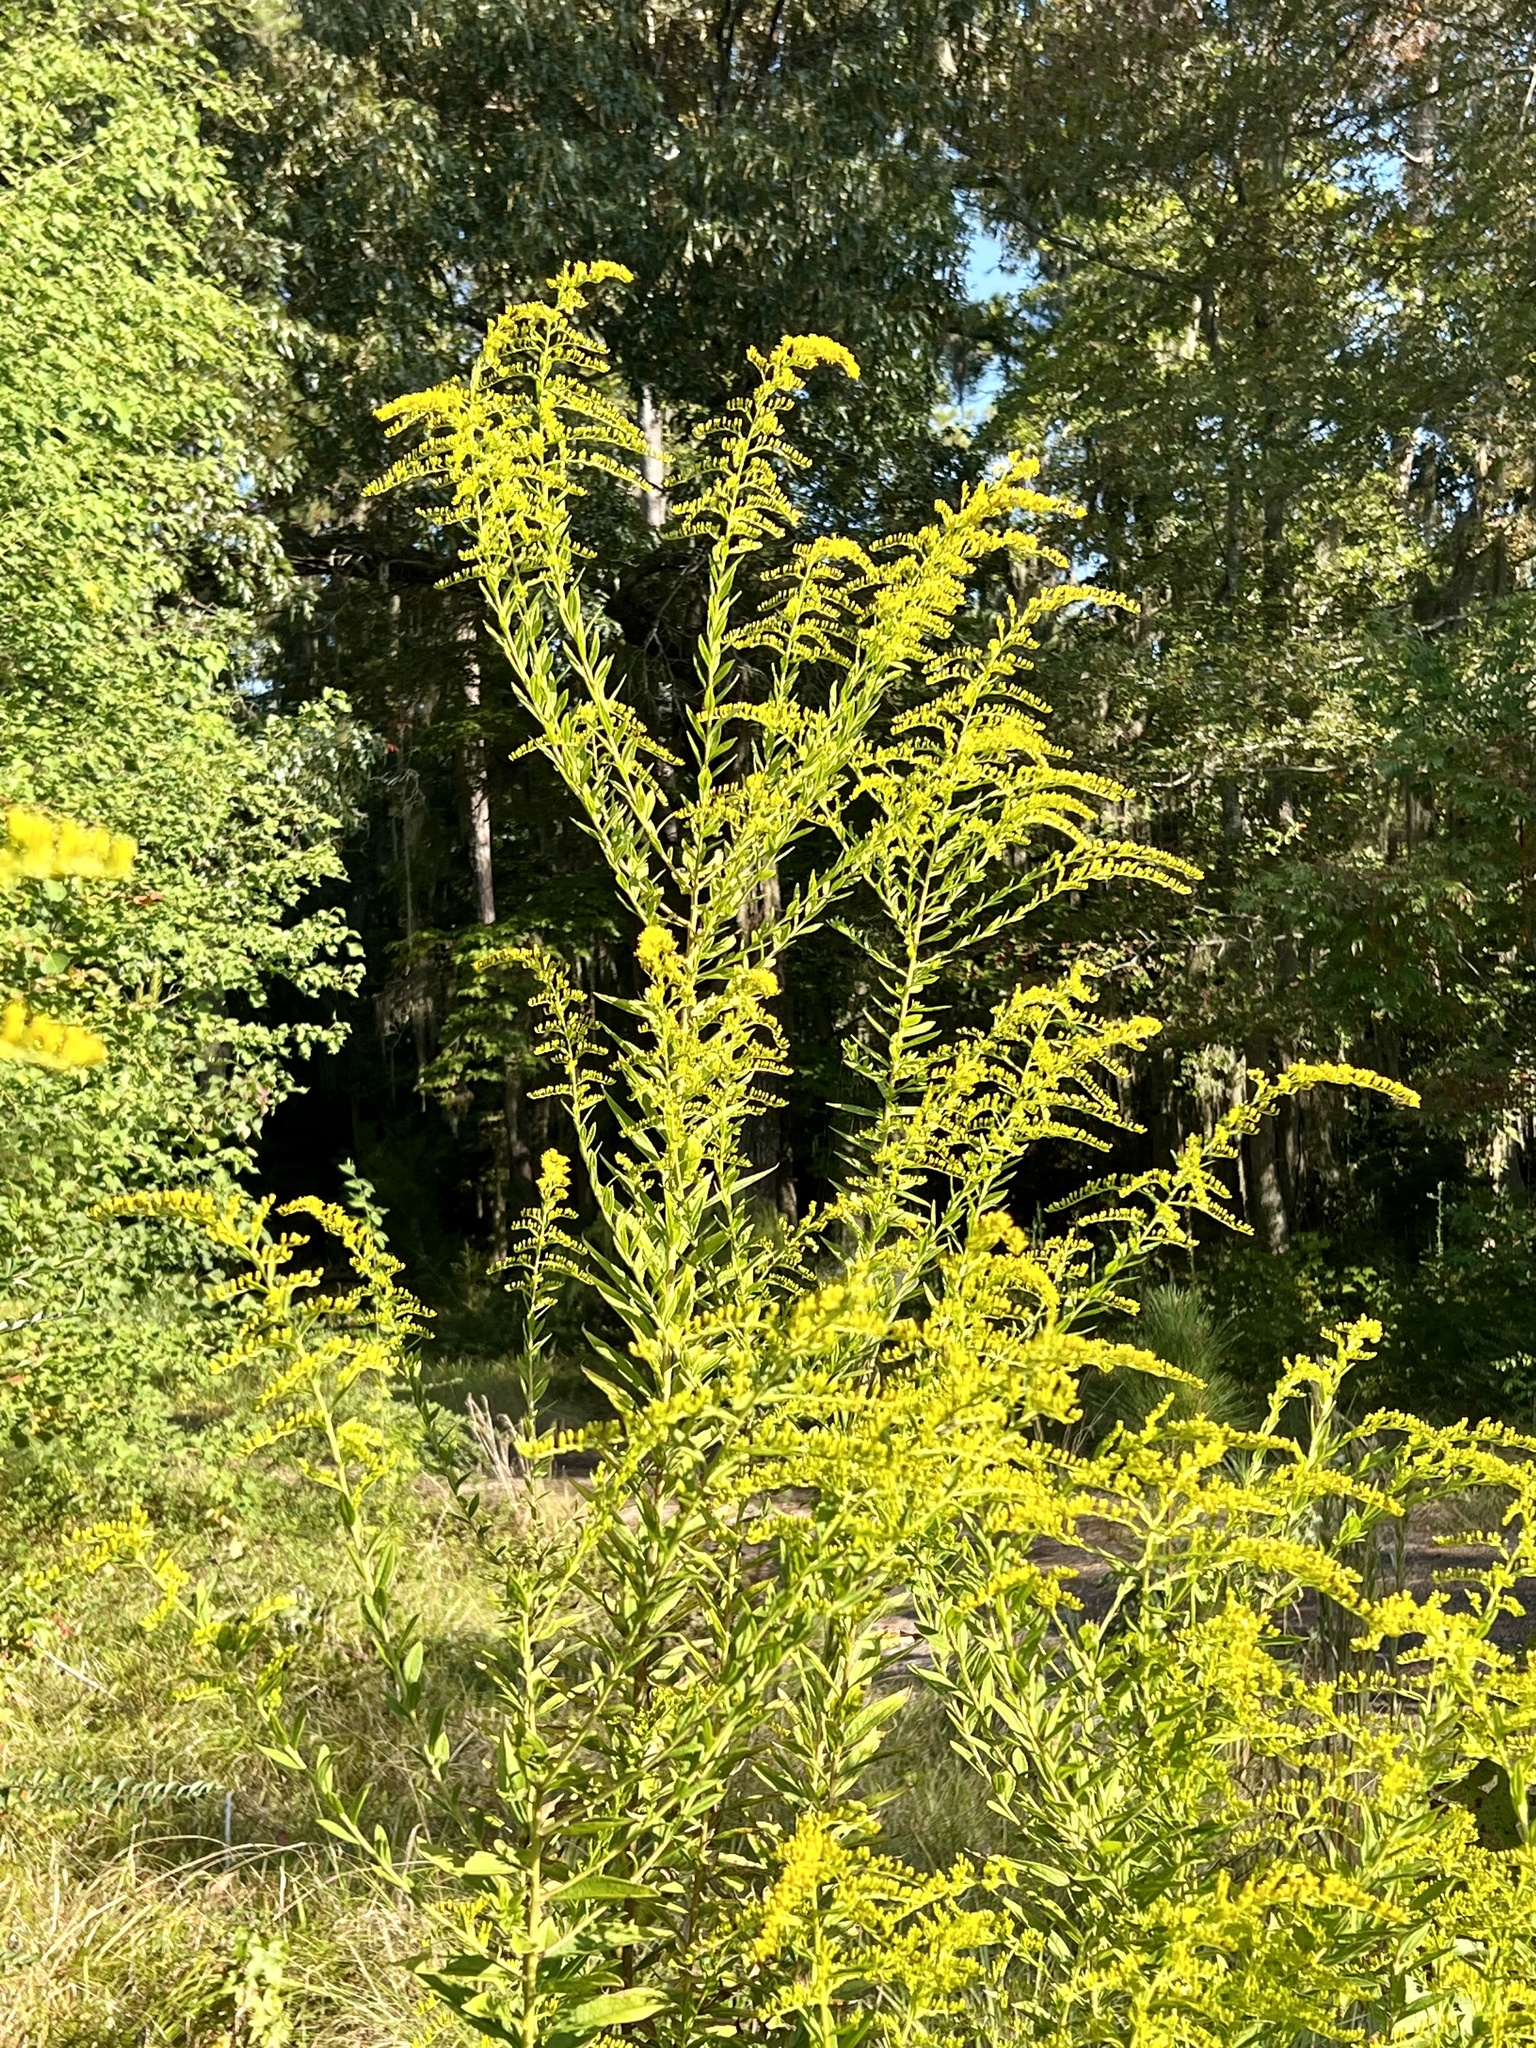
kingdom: Plantae
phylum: Tracheophyta
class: Magnoliopsida
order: Asterales
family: Asteraceae
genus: Solidago
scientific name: Solidago altissima
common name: Late goldenrod
